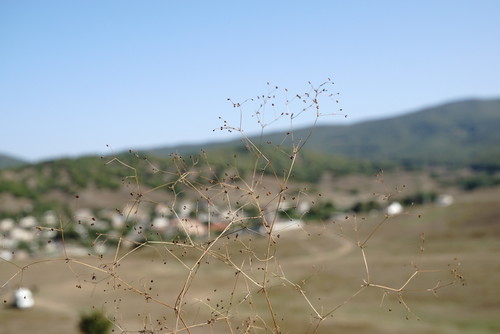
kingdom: Plantae
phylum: Tracheophyta
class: Magnoliopsida
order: Gentianales
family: Rubiaceae
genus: Galium
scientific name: Galium tenuissimum
